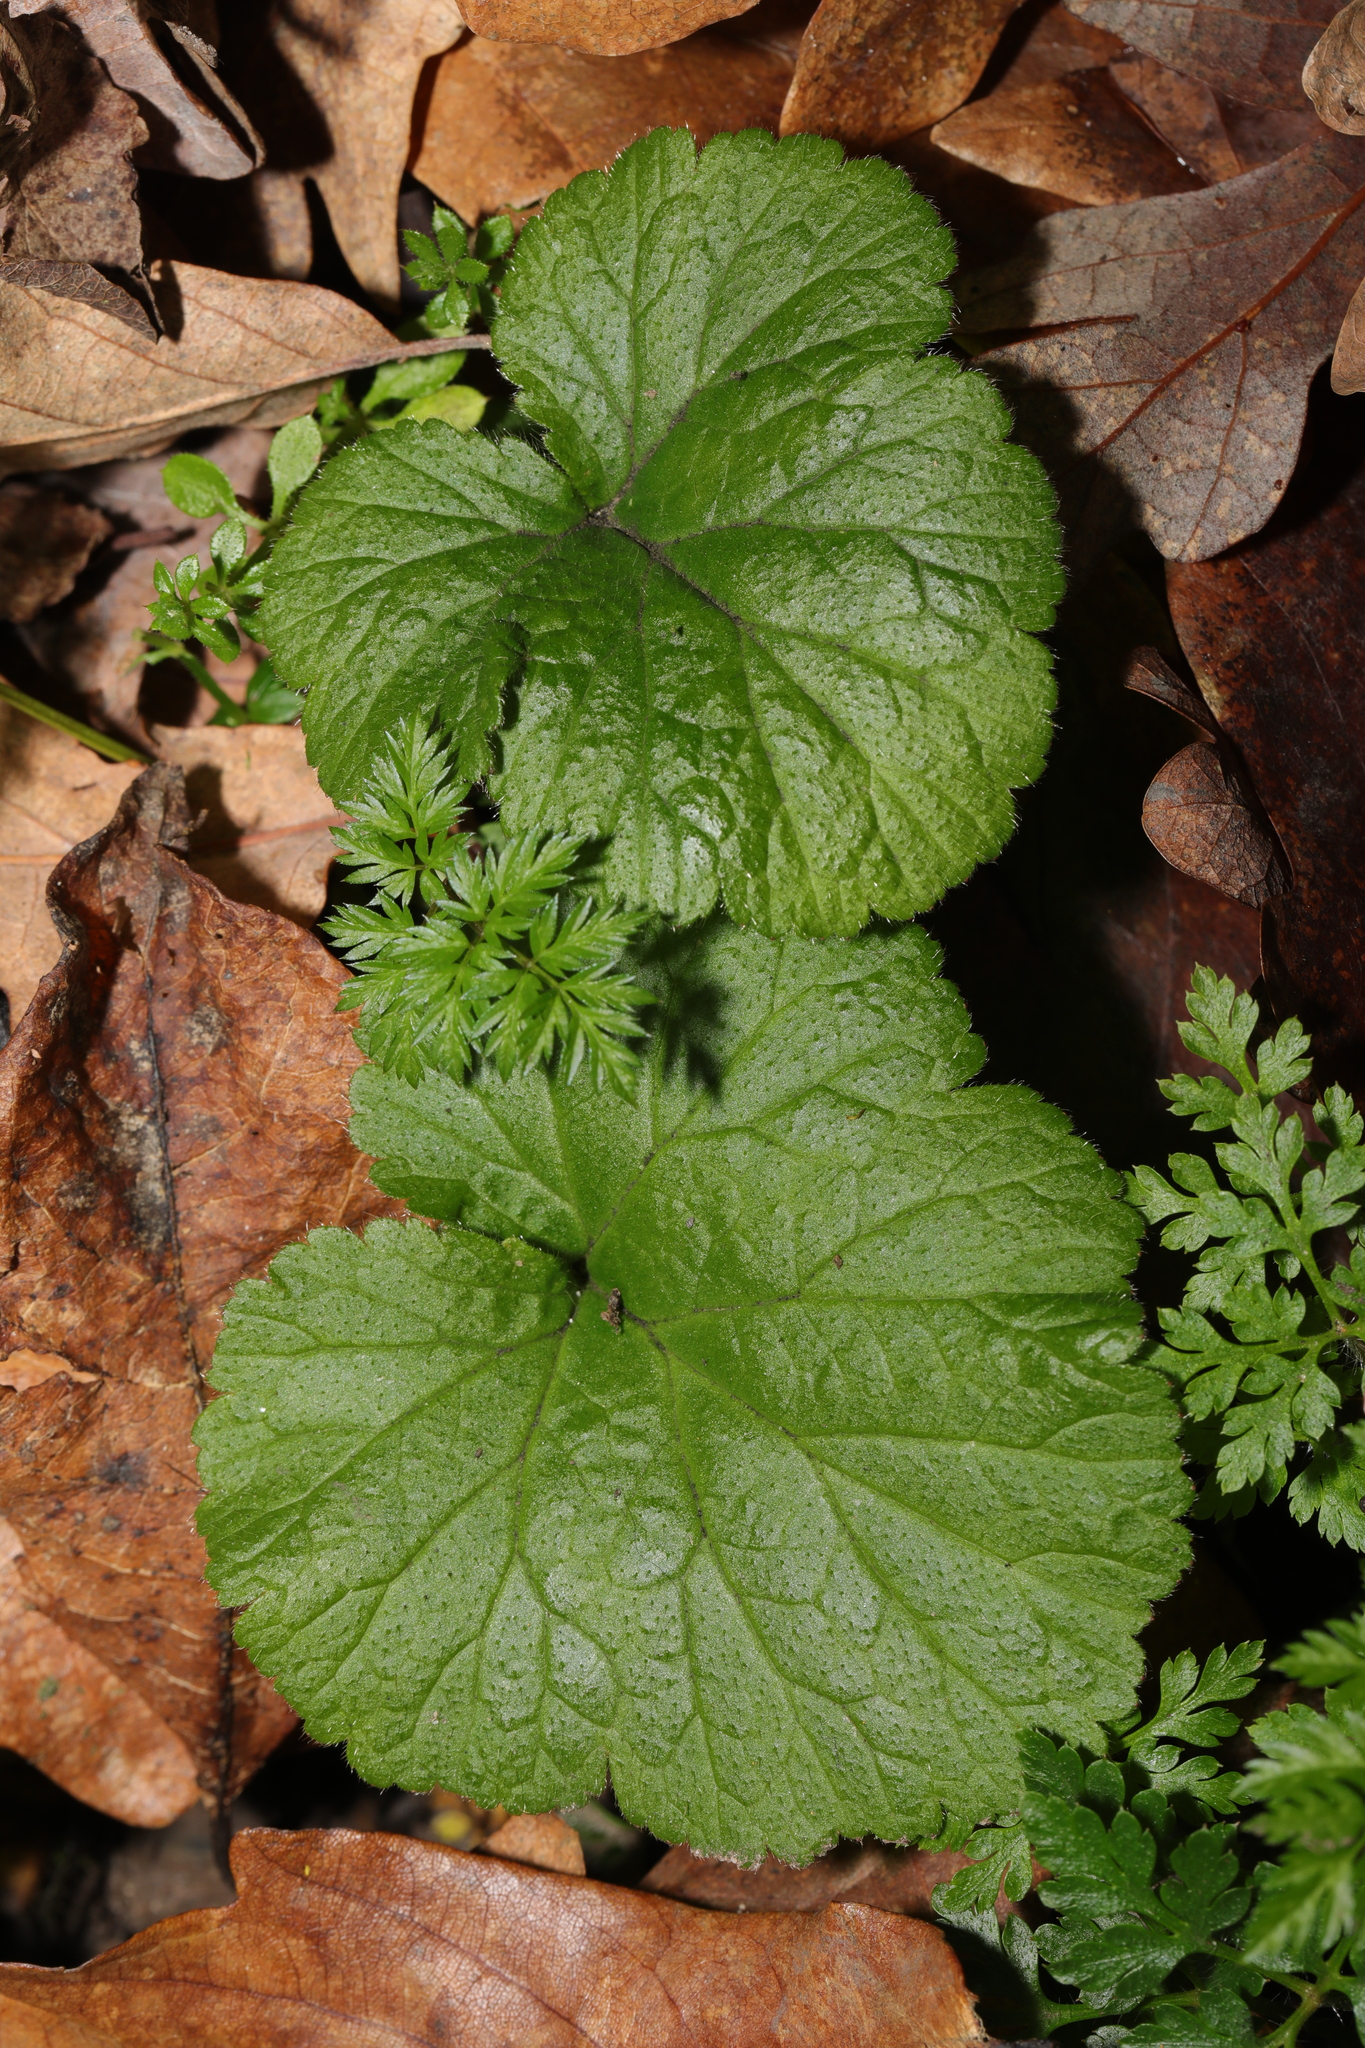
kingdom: Plantae
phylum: Tracheophyta
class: Magnoliopsida
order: Rosales
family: Rosaceae
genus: Geum
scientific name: Geum urbanum
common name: Wood avens
